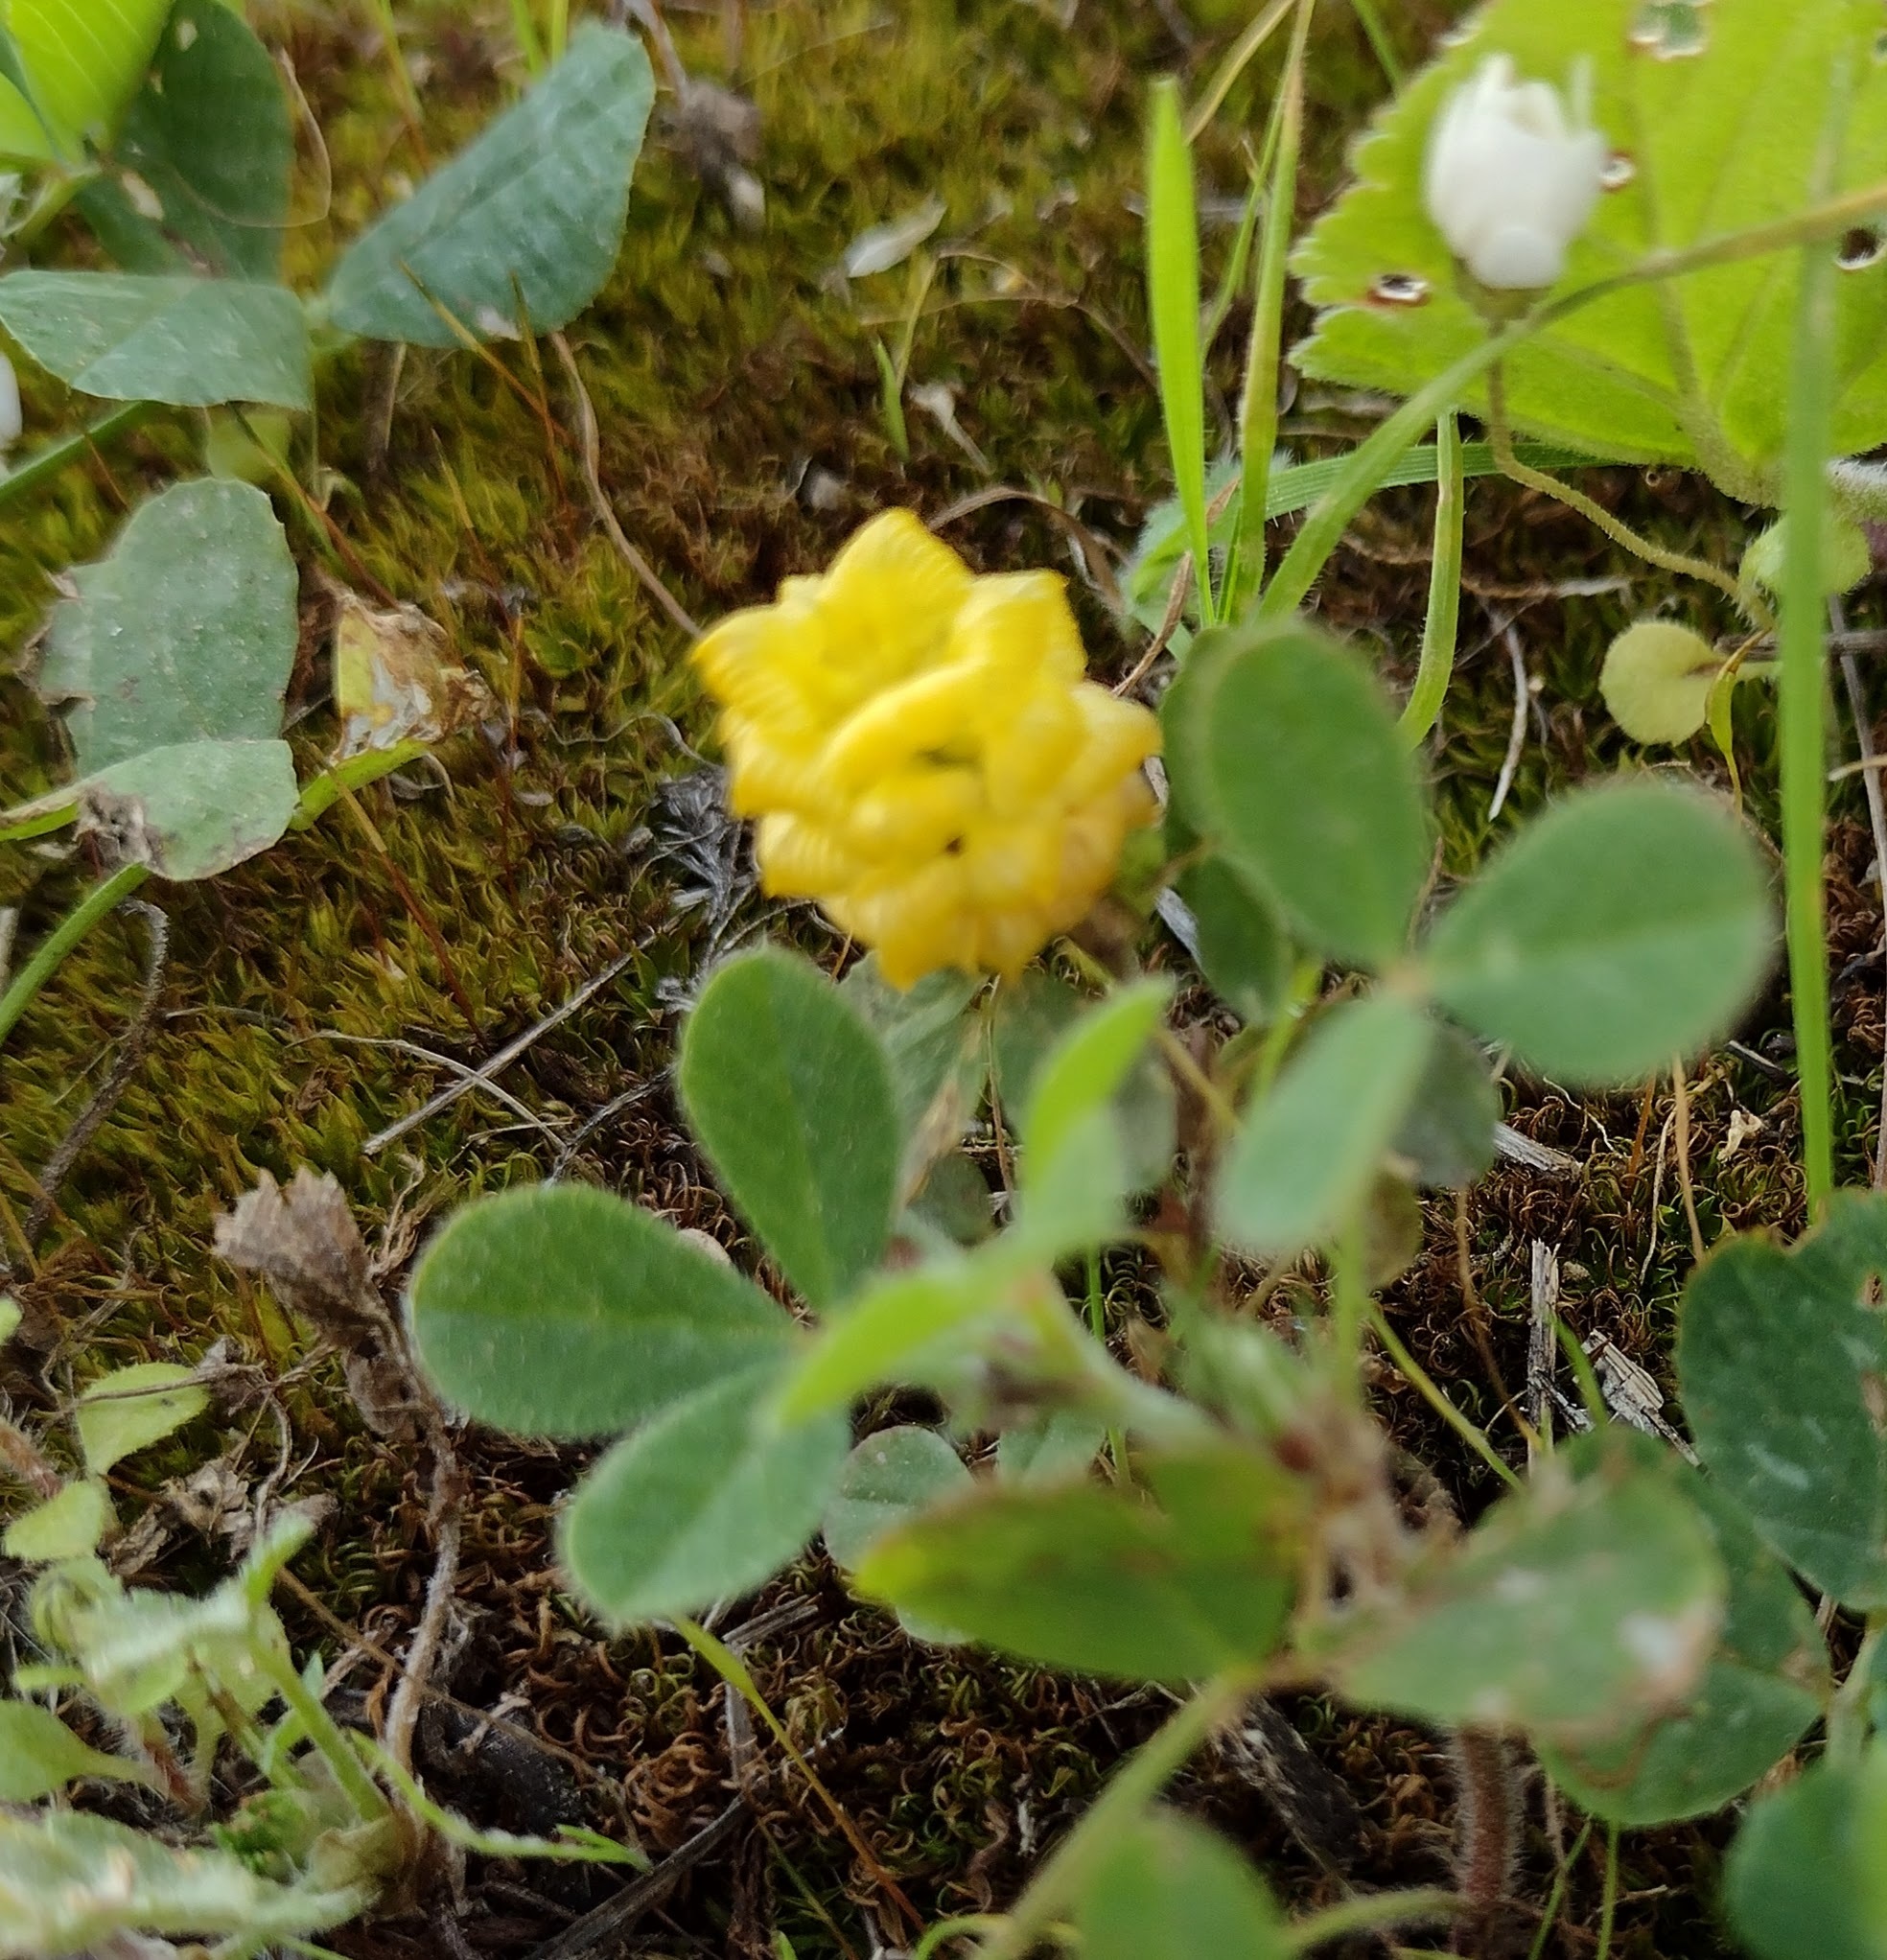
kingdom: Plantae
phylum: Tracheophyta
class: Magnoliopsida
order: Fabales
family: Fabaceae
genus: Trifolium
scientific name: Trifolium campestre
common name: Field clover
